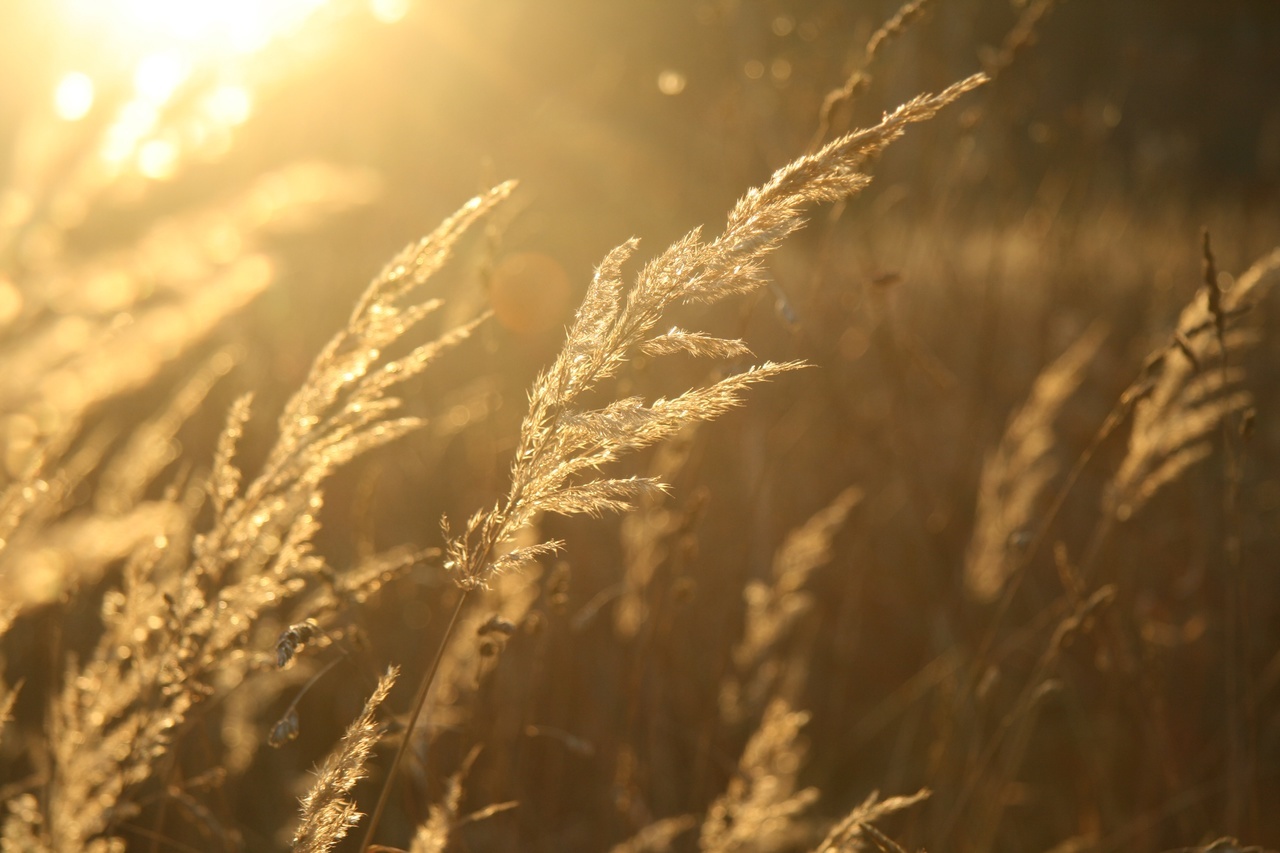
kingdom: Plantae
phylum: Tracheophyta
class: Liliopsida
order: Poales
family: Poaceae
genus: Calamagrostis
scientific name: Calamagrostis epigejos
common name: Wood small-reed
